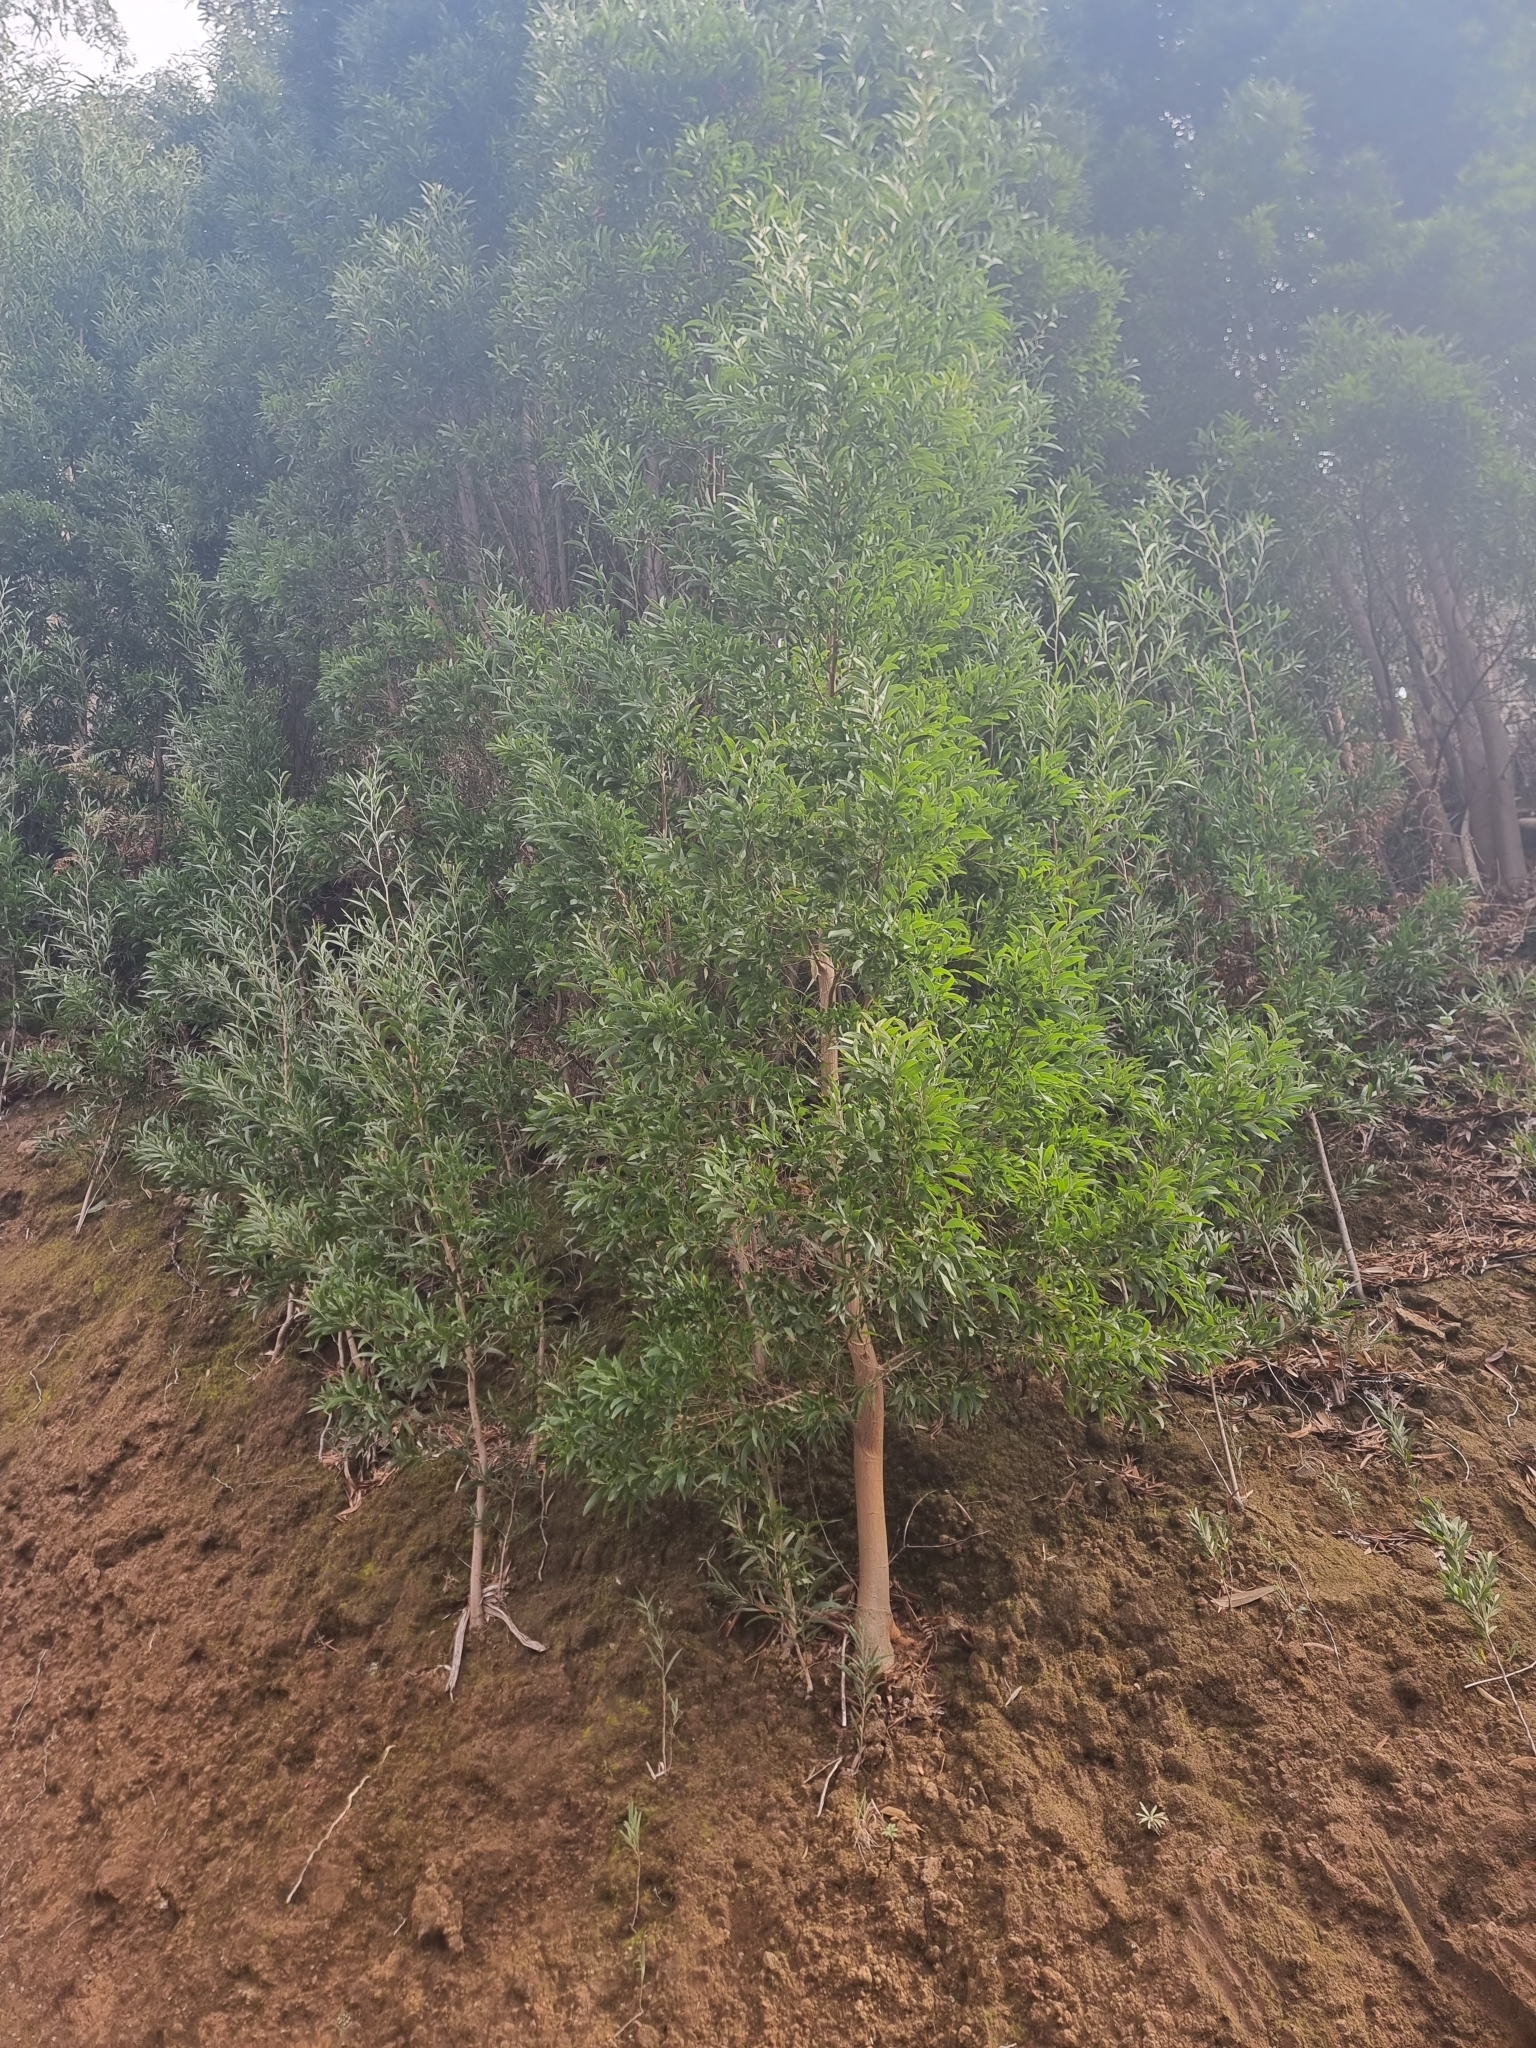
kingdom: Plantae
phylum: Tracheophyta
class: Magnoliopsida
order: Fabales
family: Fabaceae
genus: Acacia
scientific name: Acacia melanoxylon
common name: Blackwood
